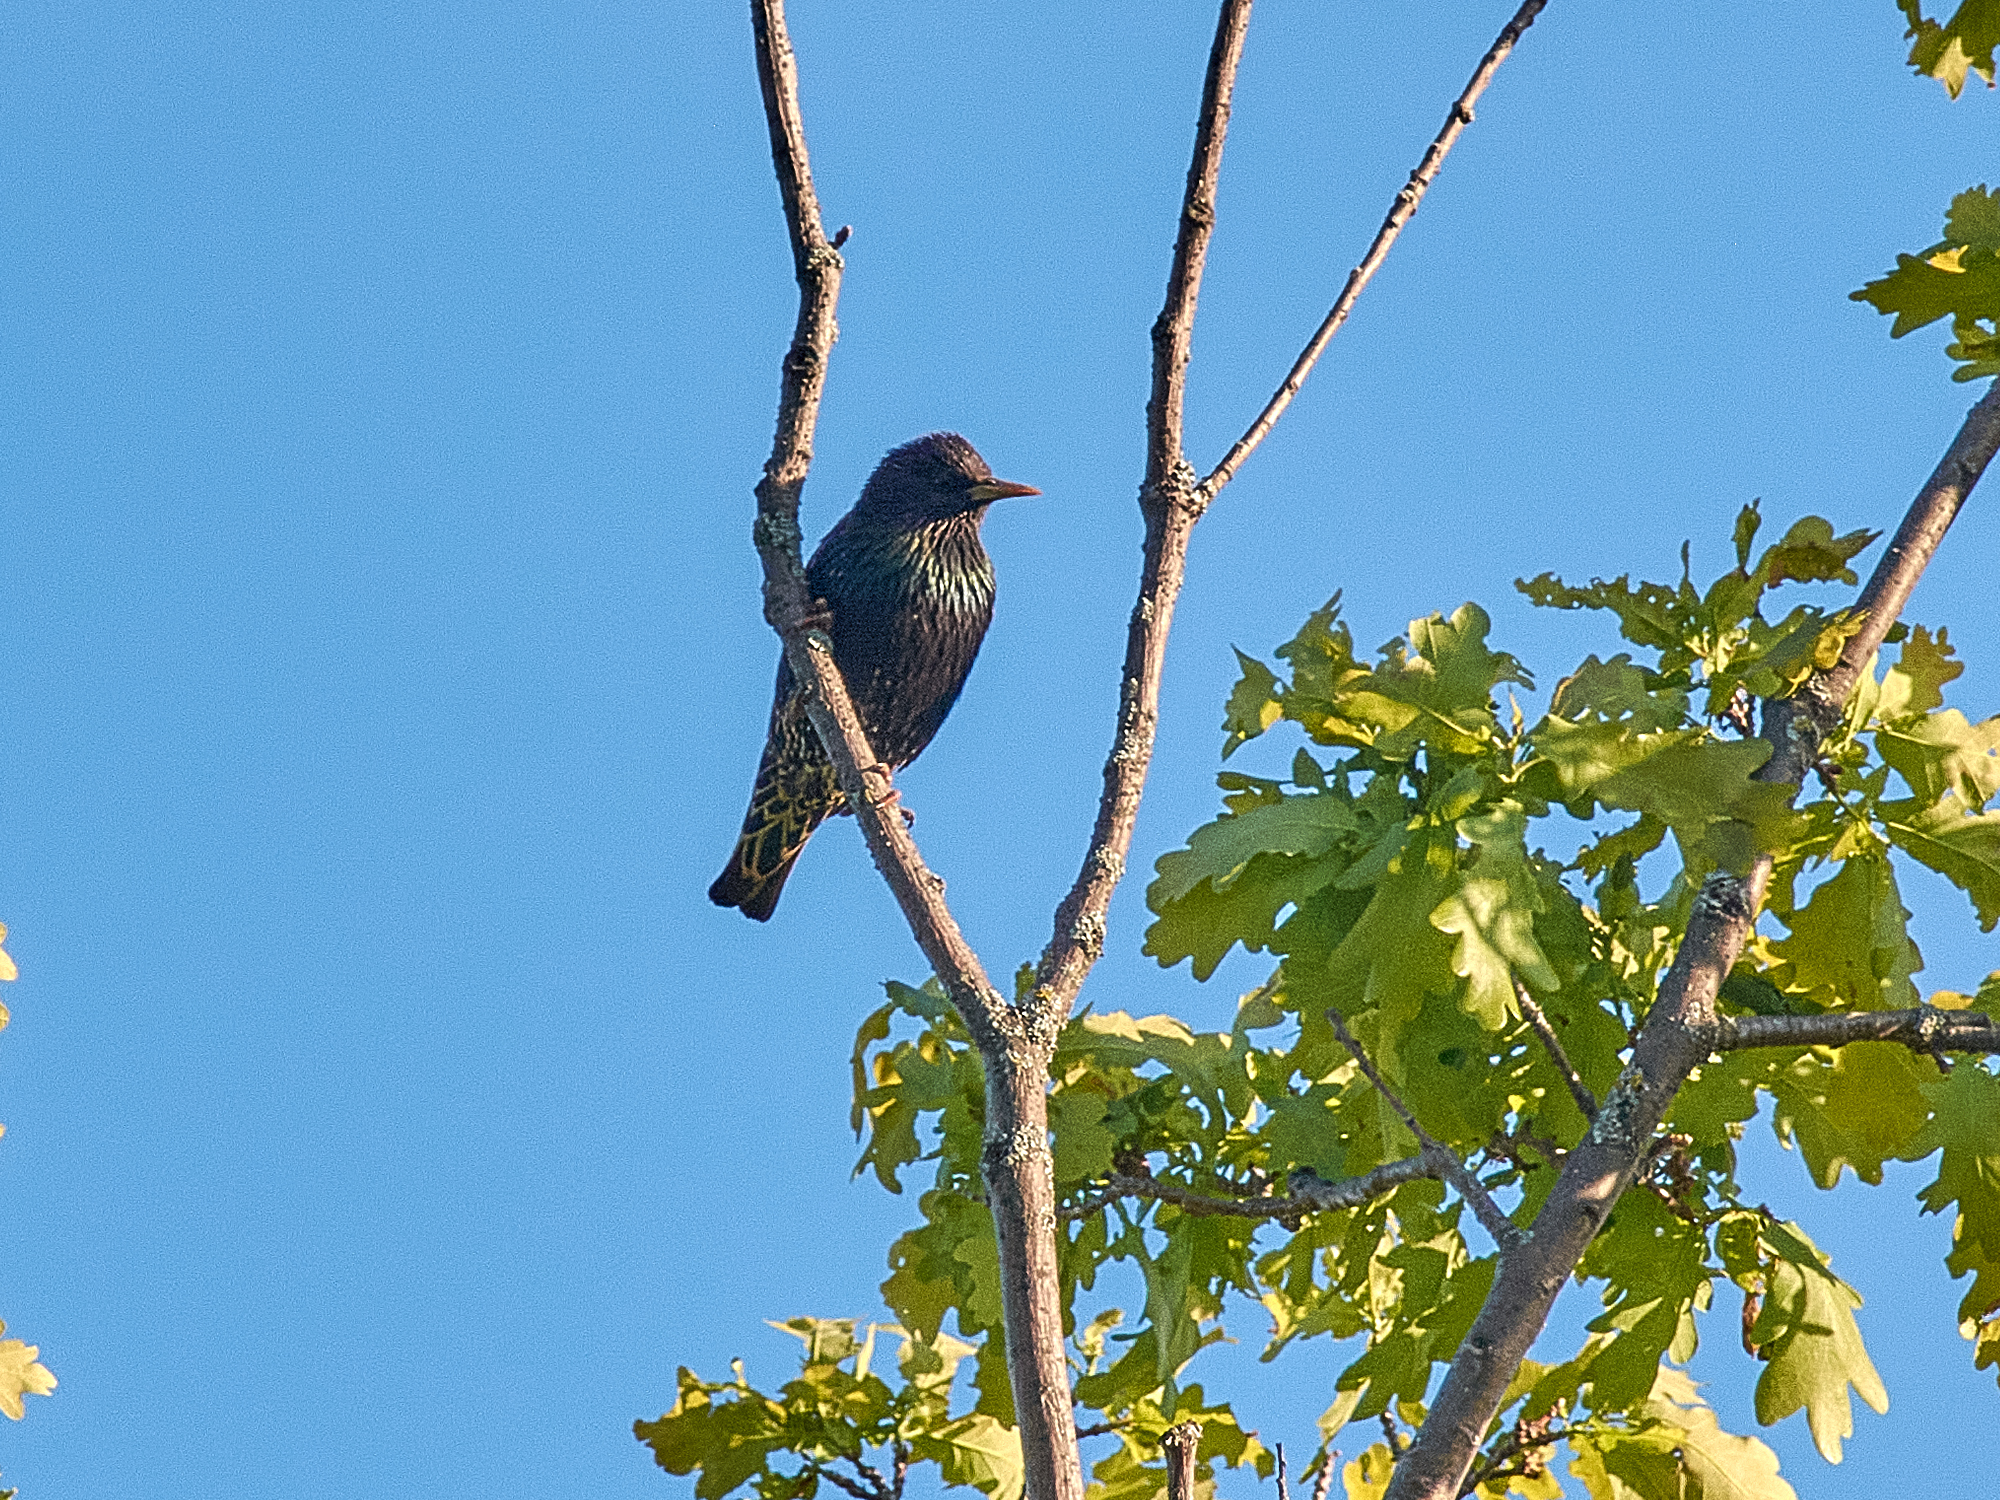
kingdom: Animalia
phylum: Chordata
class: Aves
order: Passeriformes
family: Sturnidae
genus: Sturnus
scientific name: Sturnus vulgaris
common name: Common starling
